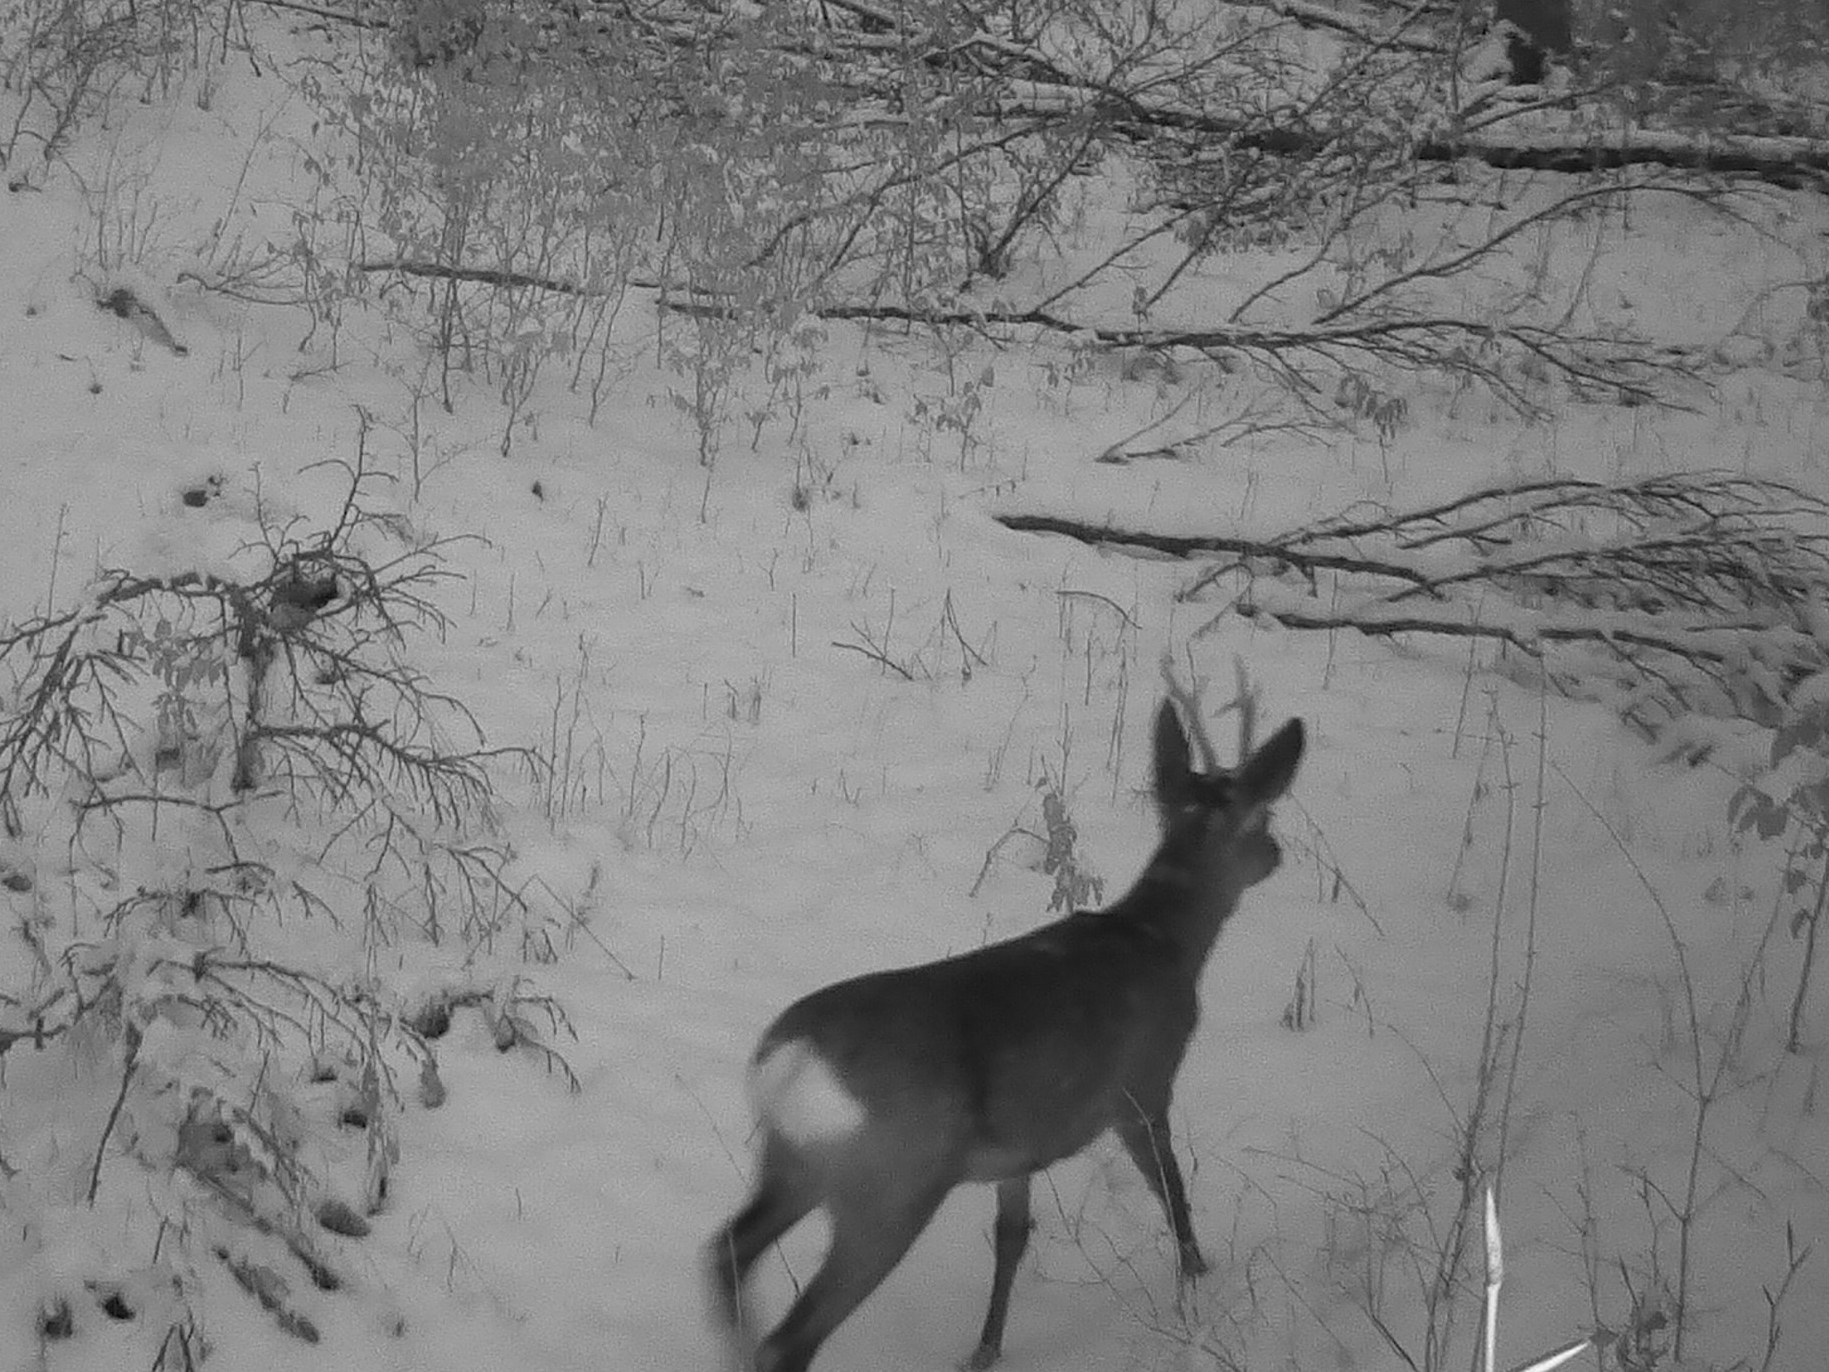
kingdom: Animalia
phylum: Chordata
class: Mammalia
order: Artiodactyla
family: Cervidae
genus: Capreolus
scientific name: Capreolus capreolus
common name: Western roe deer
